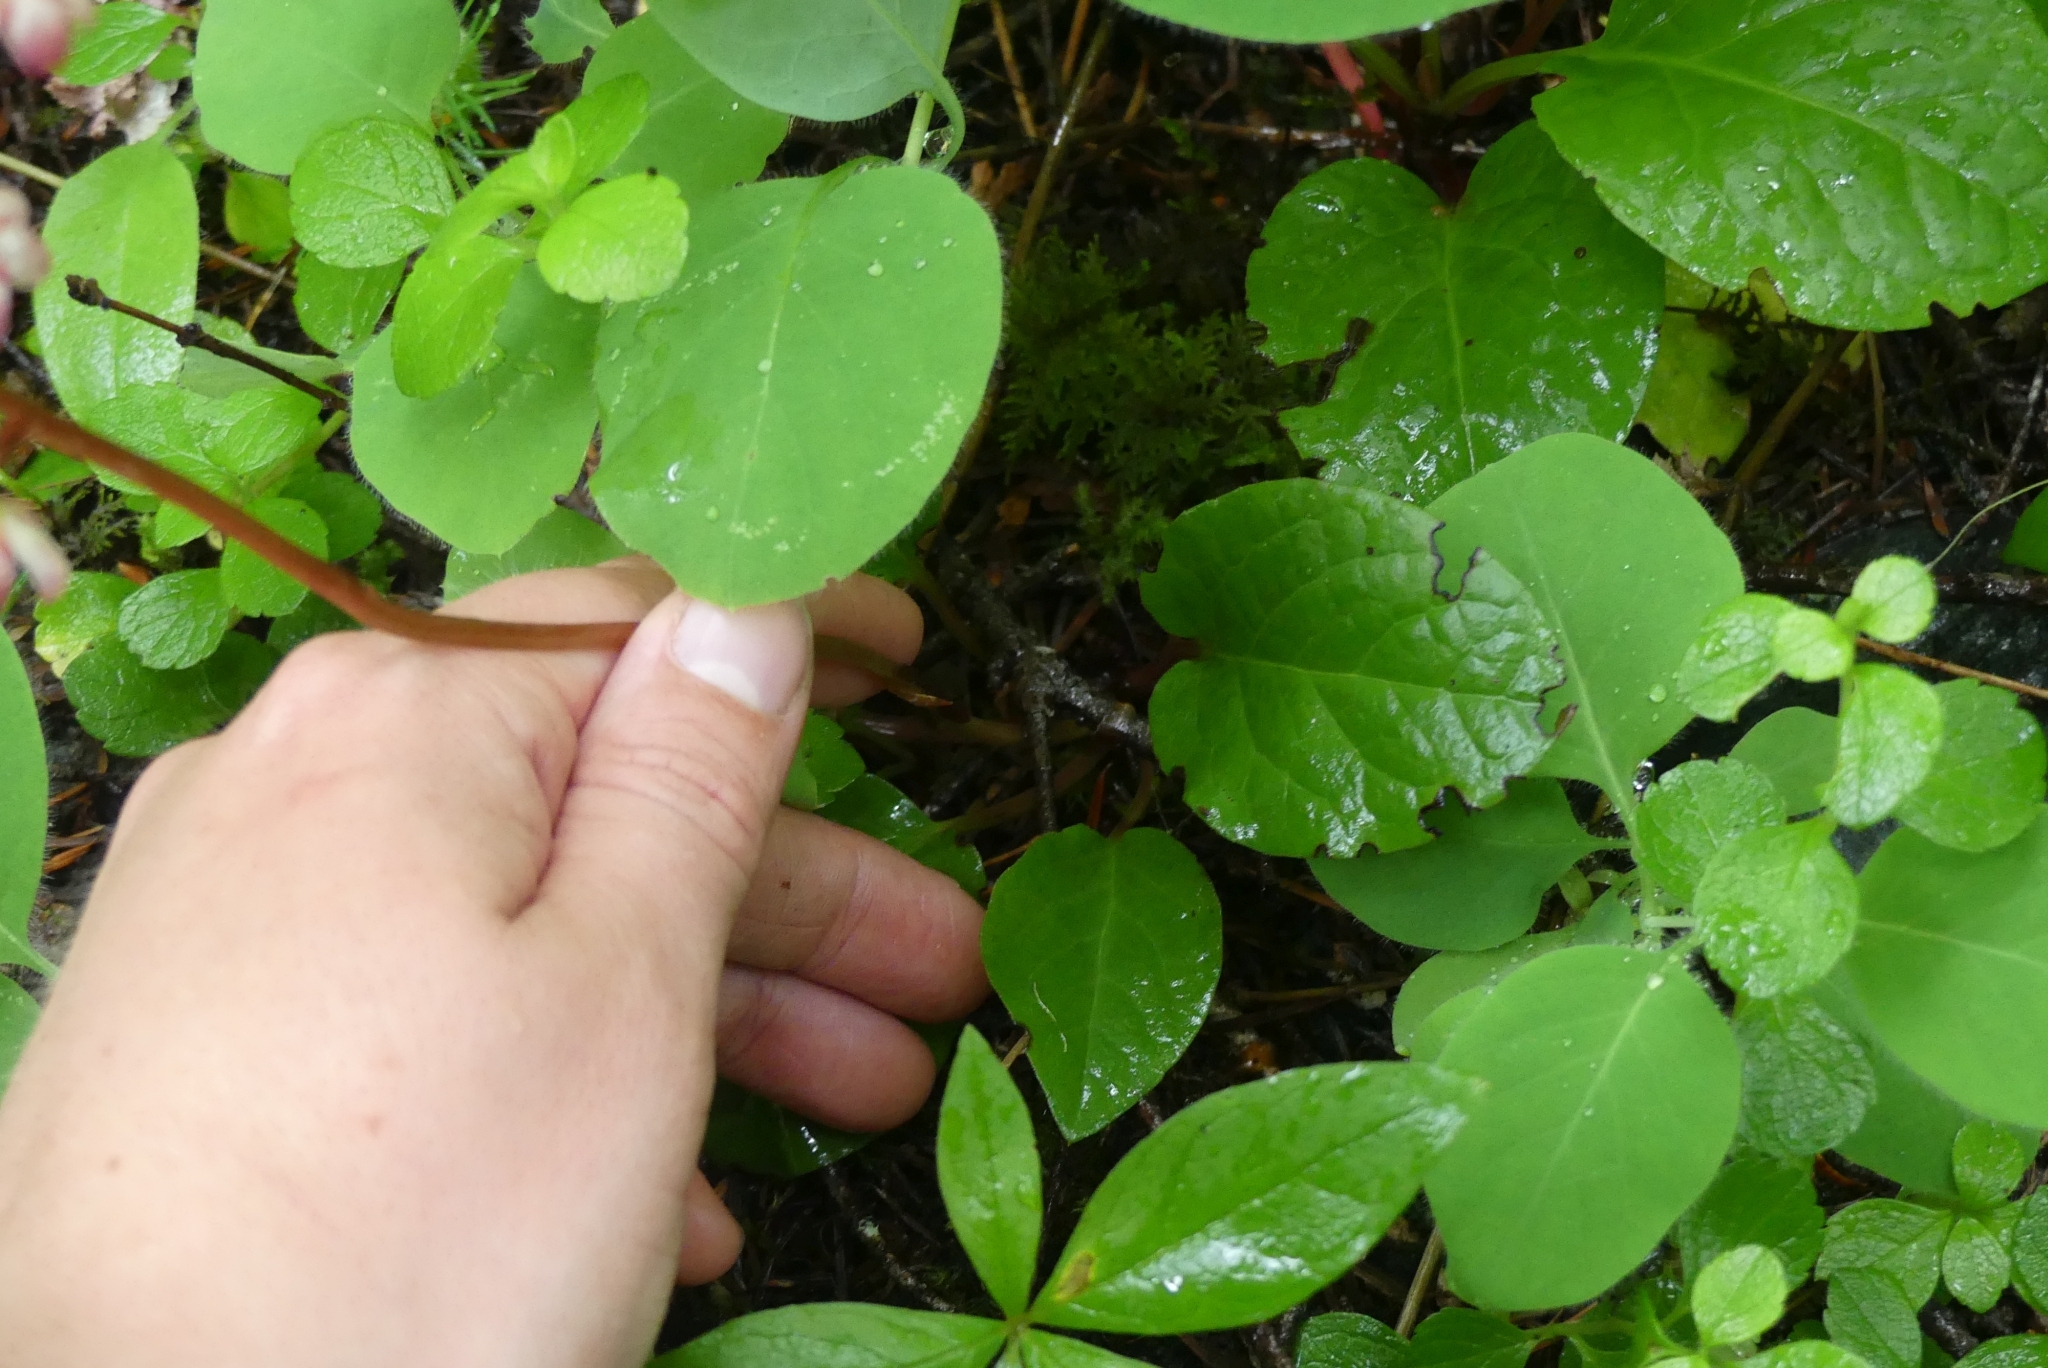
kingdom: Plantae
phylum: Tracheophyta
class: Magnoliopsida
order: Ericales
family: Ericaceae
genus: Pyrola
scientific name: Pyrola asarifolia
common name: Bog wintergreen
